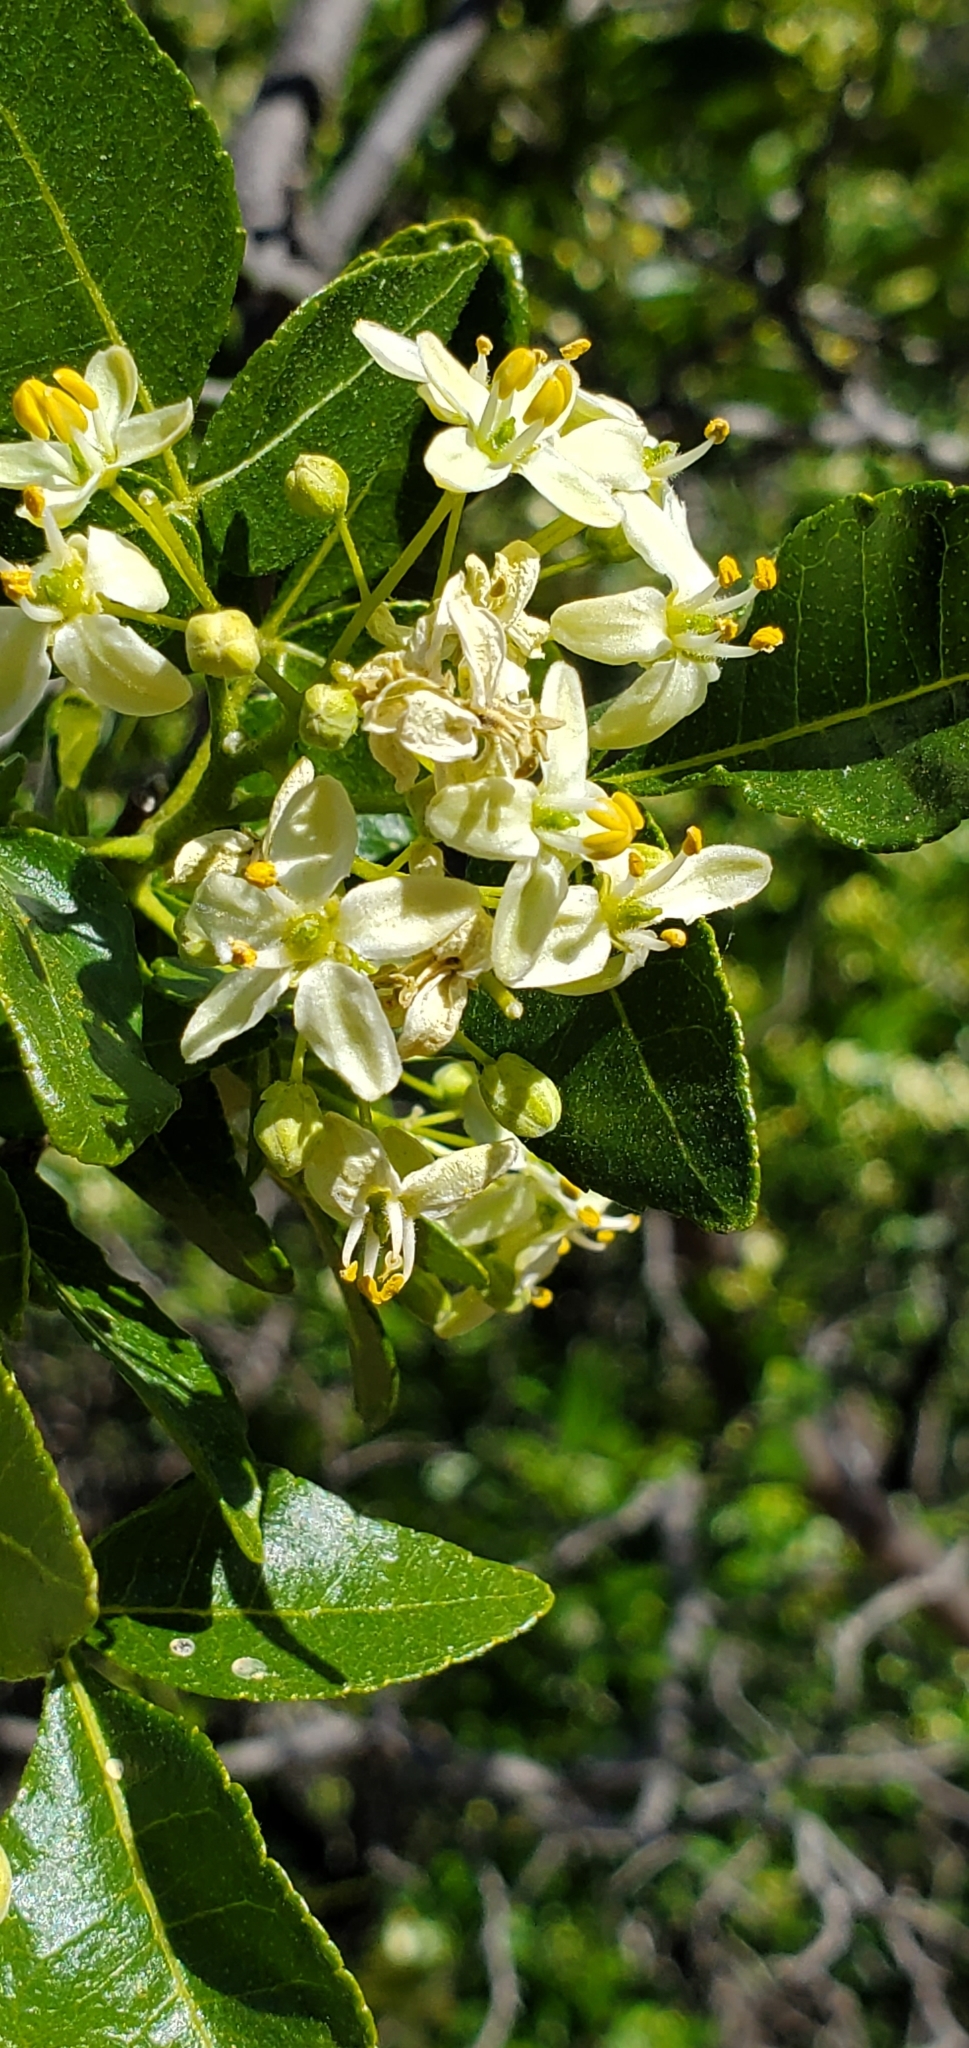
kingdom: Plantae
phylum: Tracheophyta
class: Magnoliopsida
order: Sapindales
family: Rutaceae
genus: Ptelea
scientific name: Ptelea crenulata
